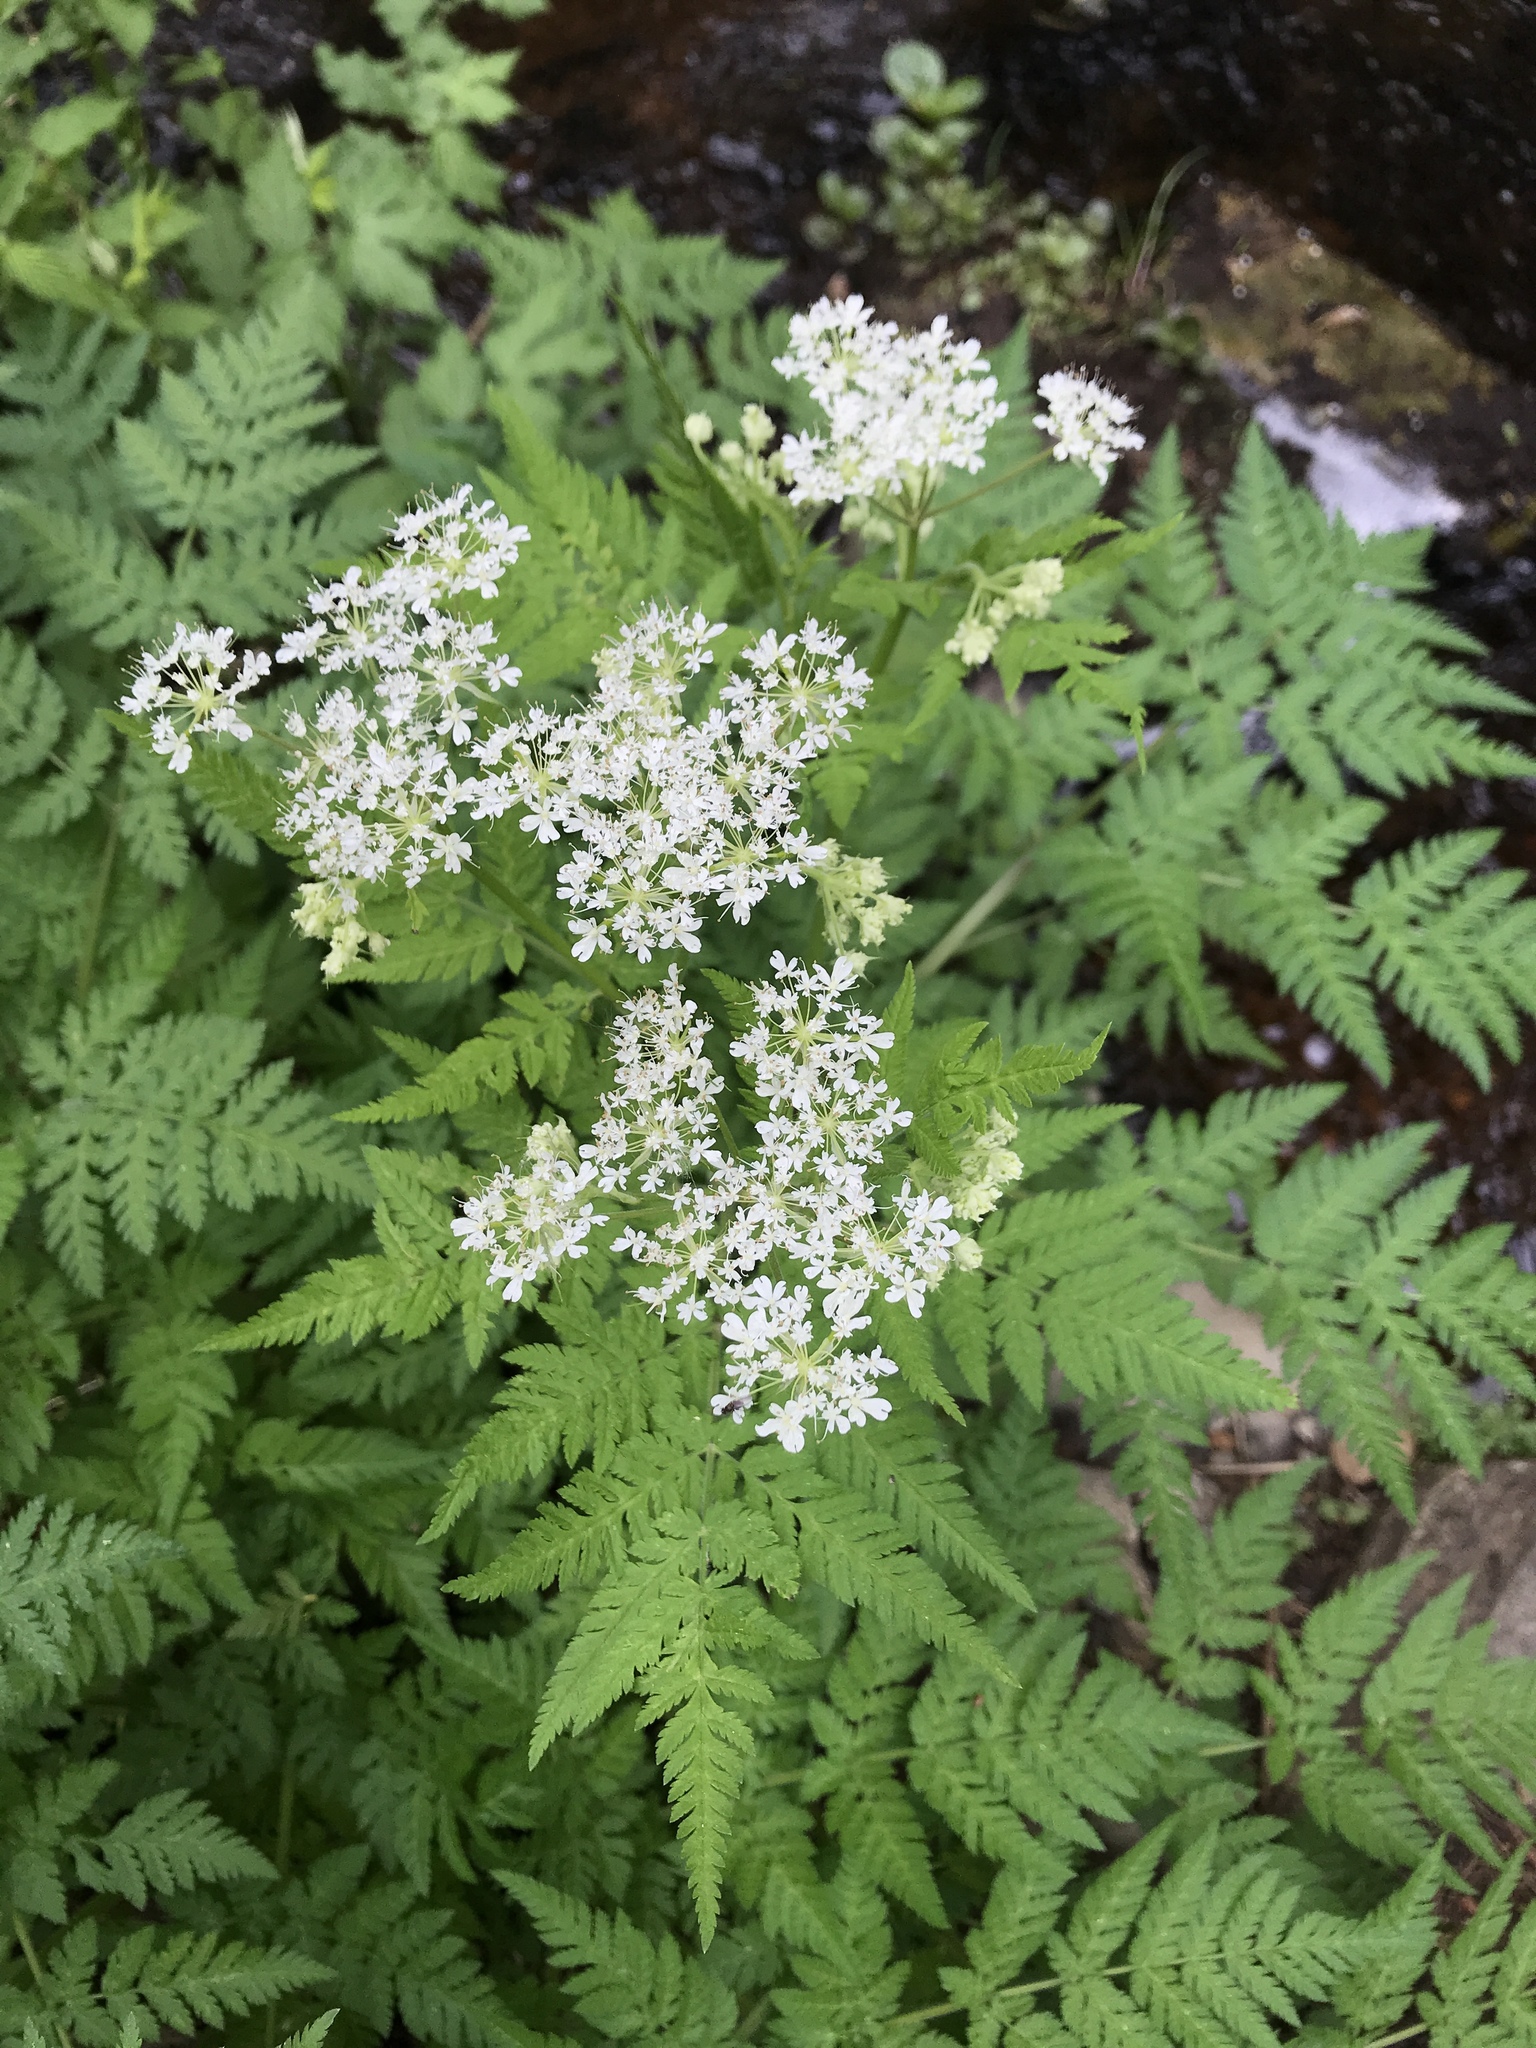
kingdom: Plantae
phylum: Tracheophyta
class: Magnoliopsida
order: Apiales
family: Apiaceae
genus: Myrrhis
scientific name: Myrrhis odorata
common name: Sweet cicely
